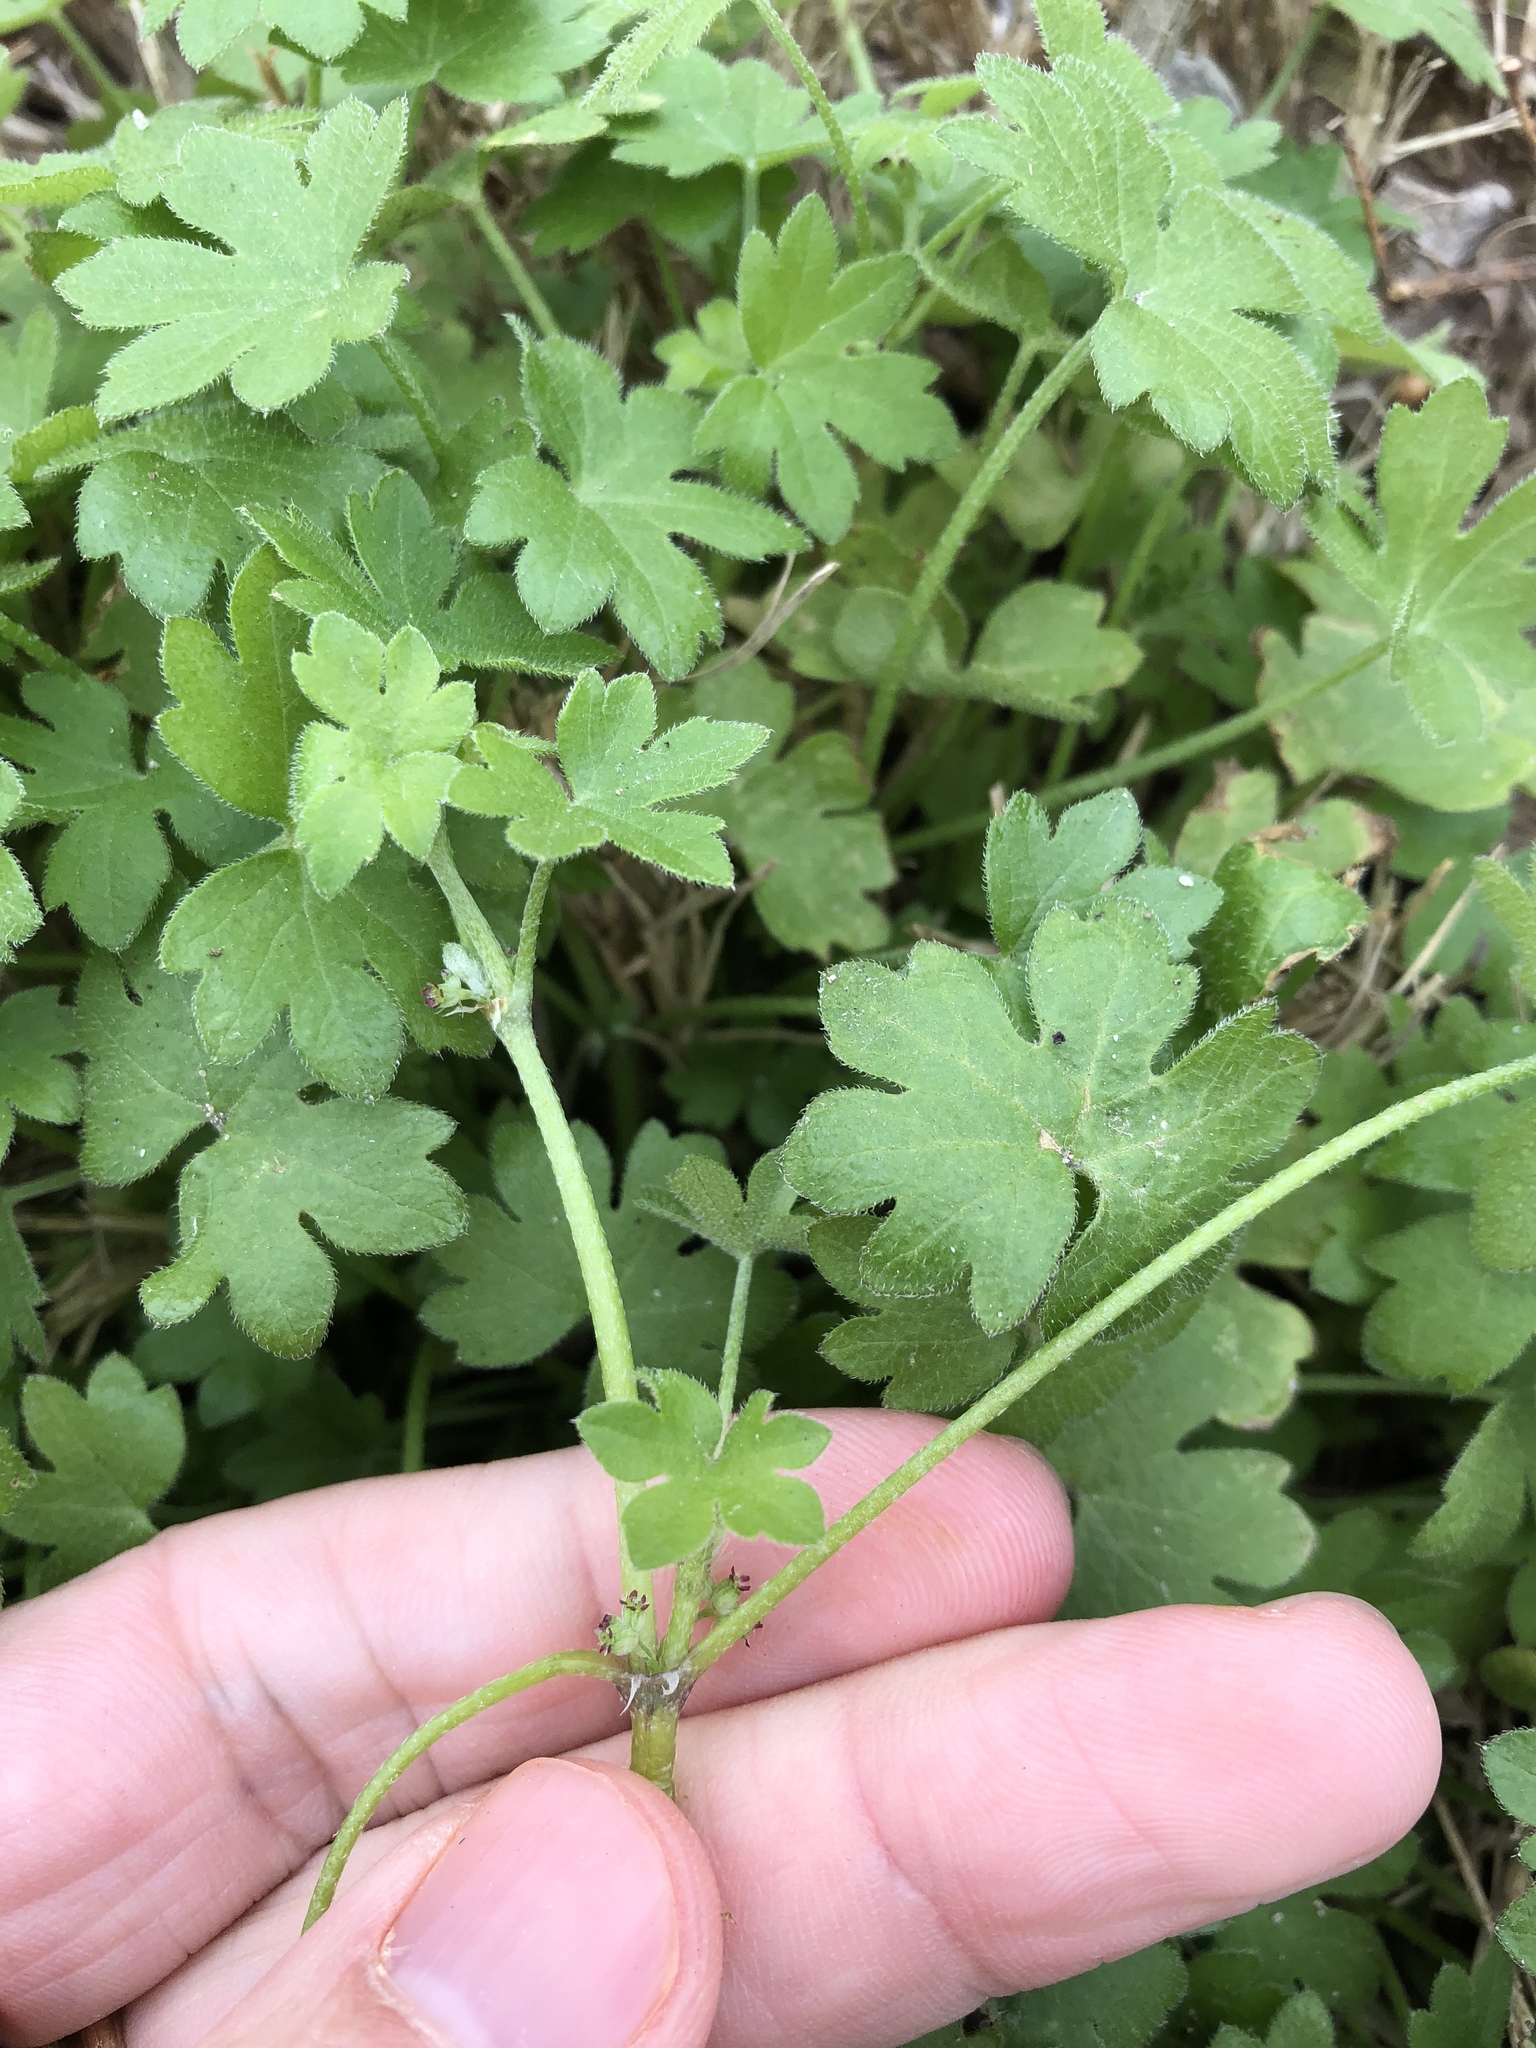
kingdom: Plantae
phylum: Tracheophyta
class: Magnoliopsida
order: Apiales
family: Apiaceae
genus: Bowlesia
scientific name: Bowlesia incana
